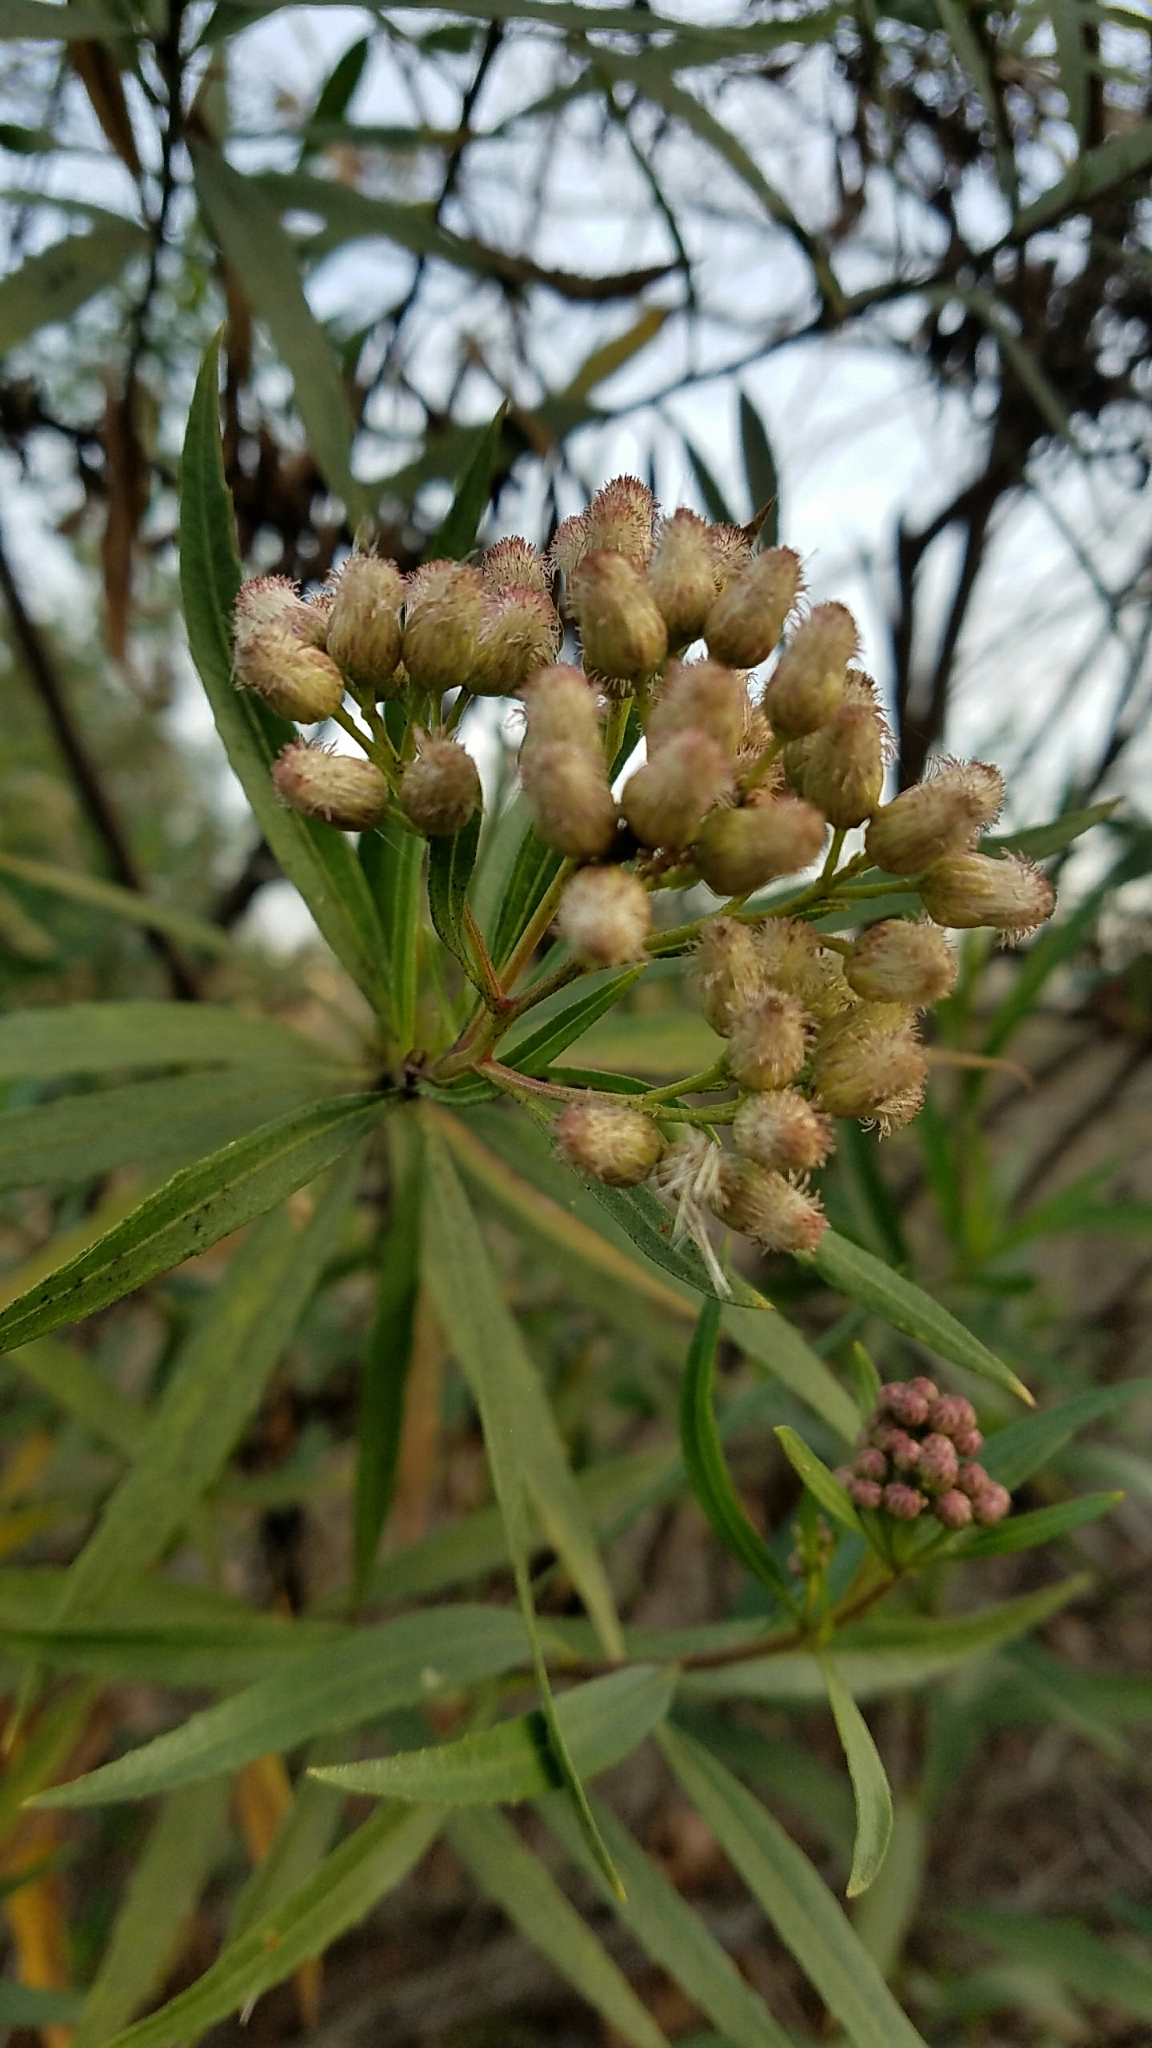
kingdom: Plantae
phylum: Tracheophyta
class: Magnoliopsida
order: Asterales
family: Asteraceae
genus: Baccharis
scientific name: Baccharis salicifolia
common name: Sticky baccharis
